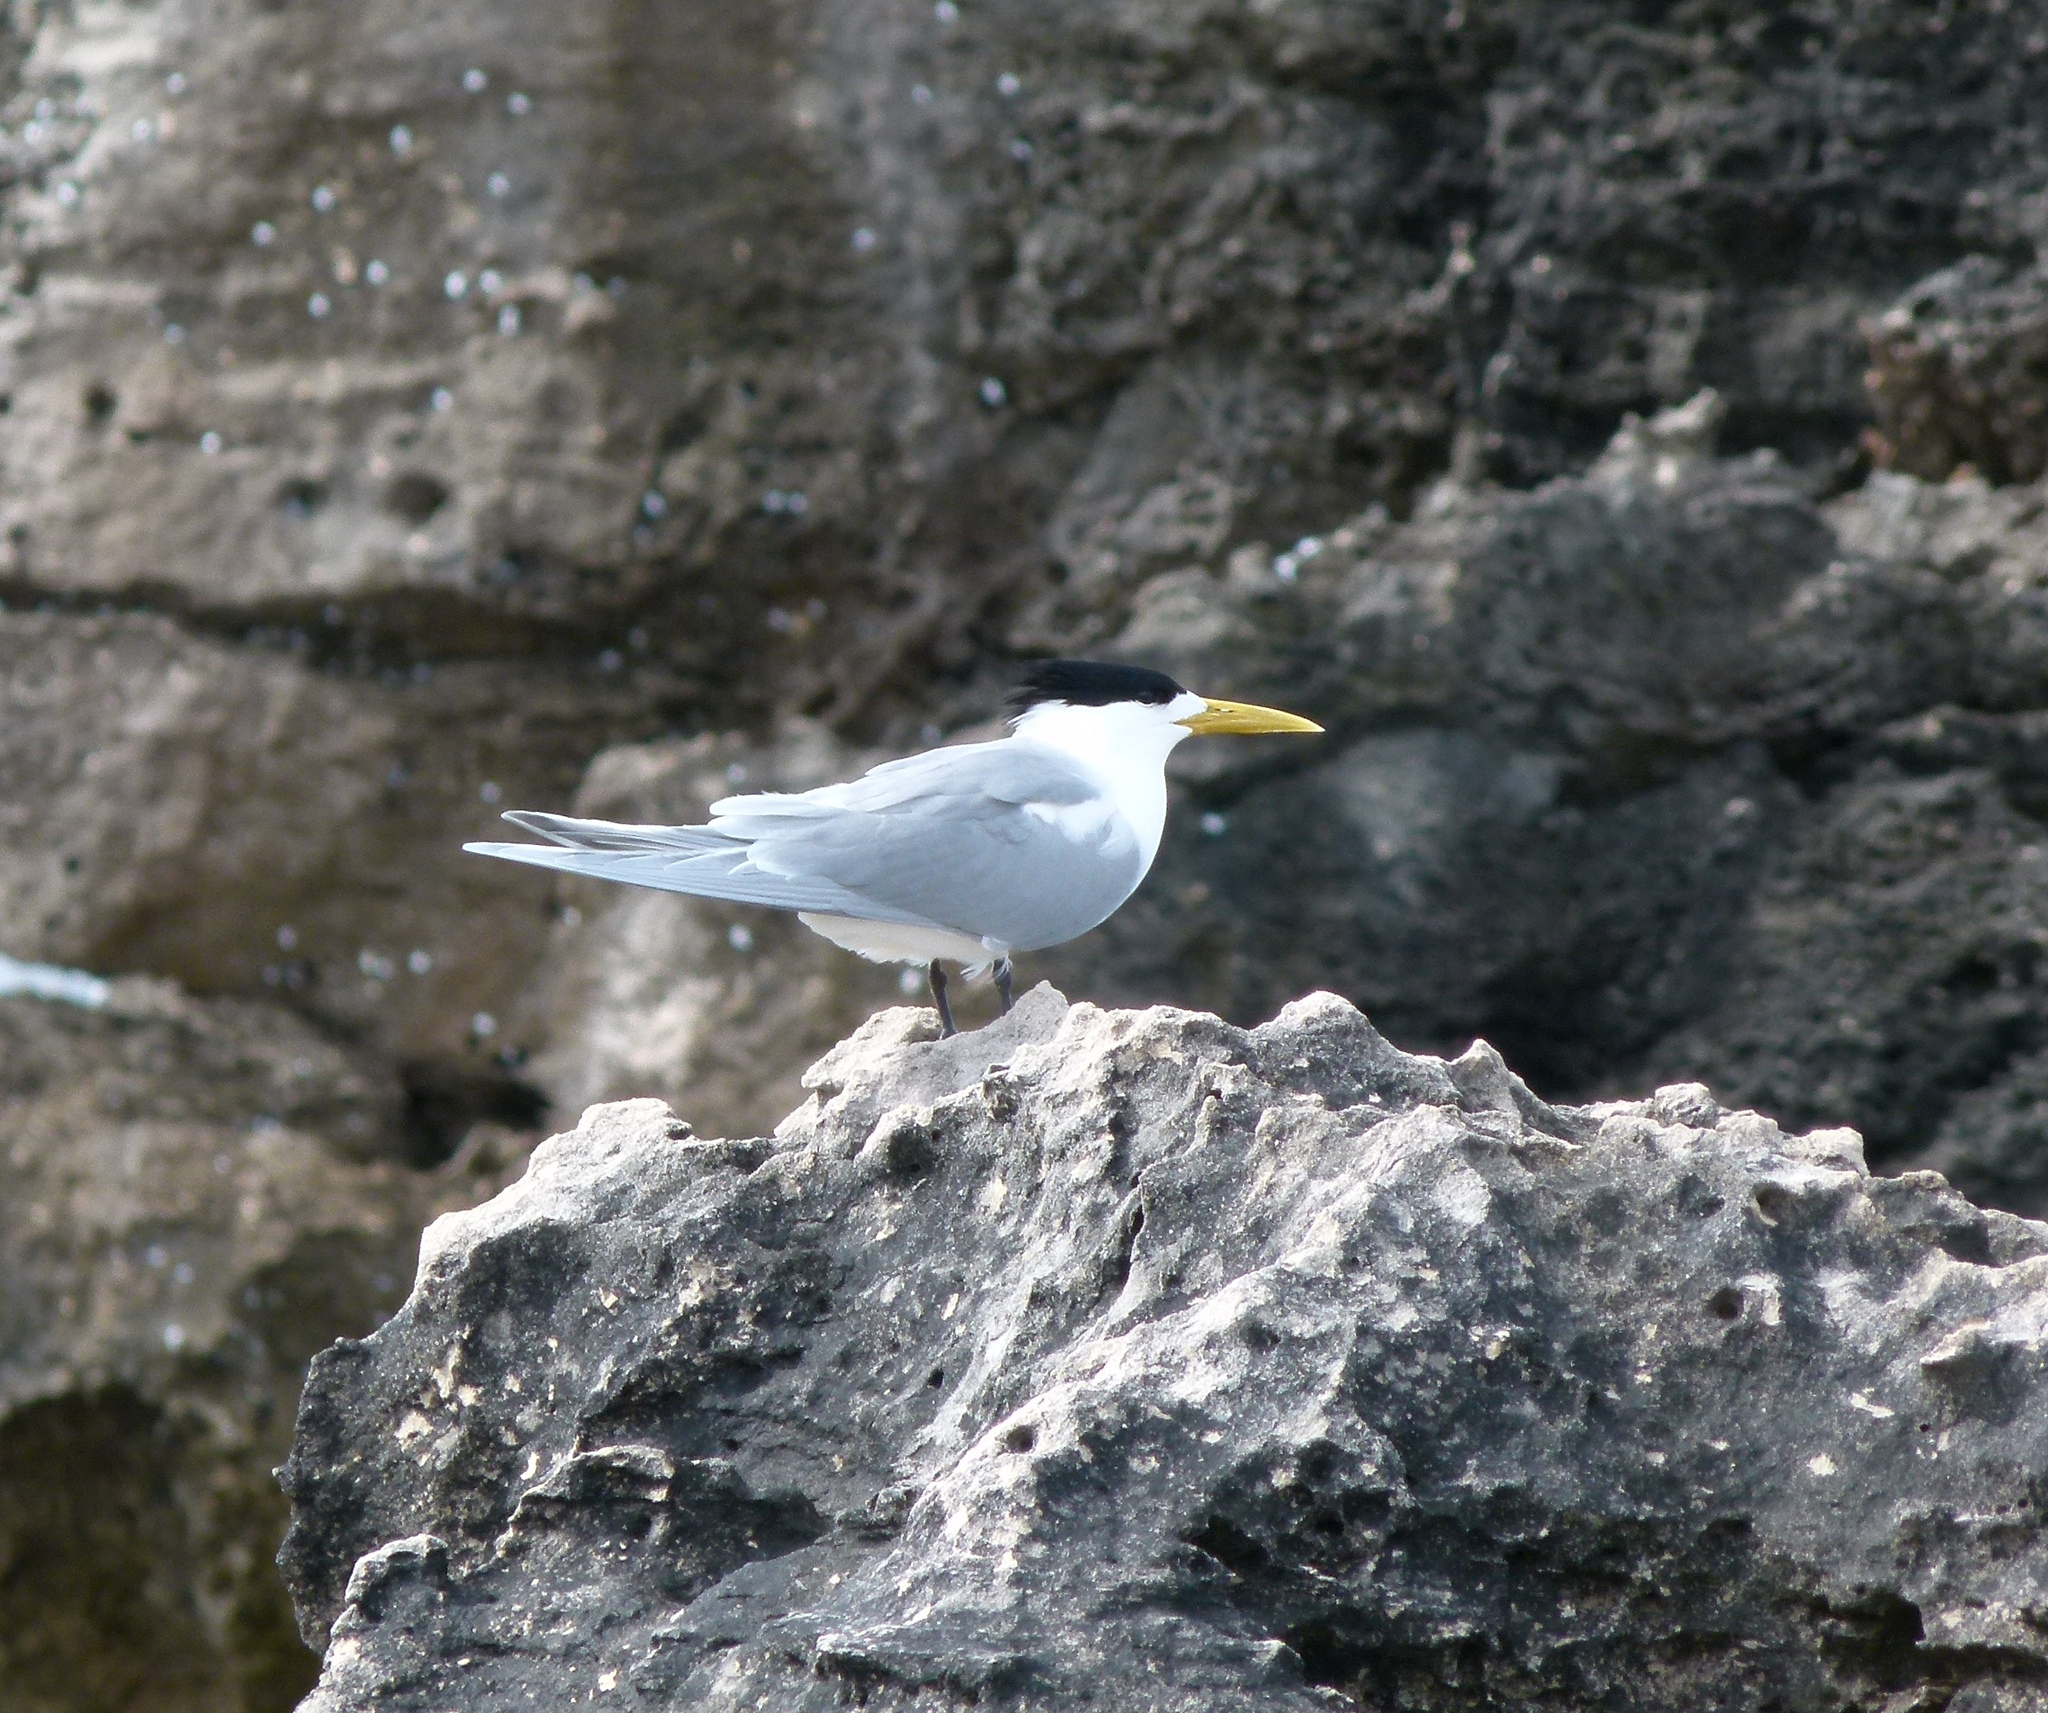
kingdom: Animalia
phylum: Chordata
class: Aves
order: Charadriiformes
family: Laridae
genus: Thalasseus
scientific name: Thalasseus bergii
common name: Greater crested tern
